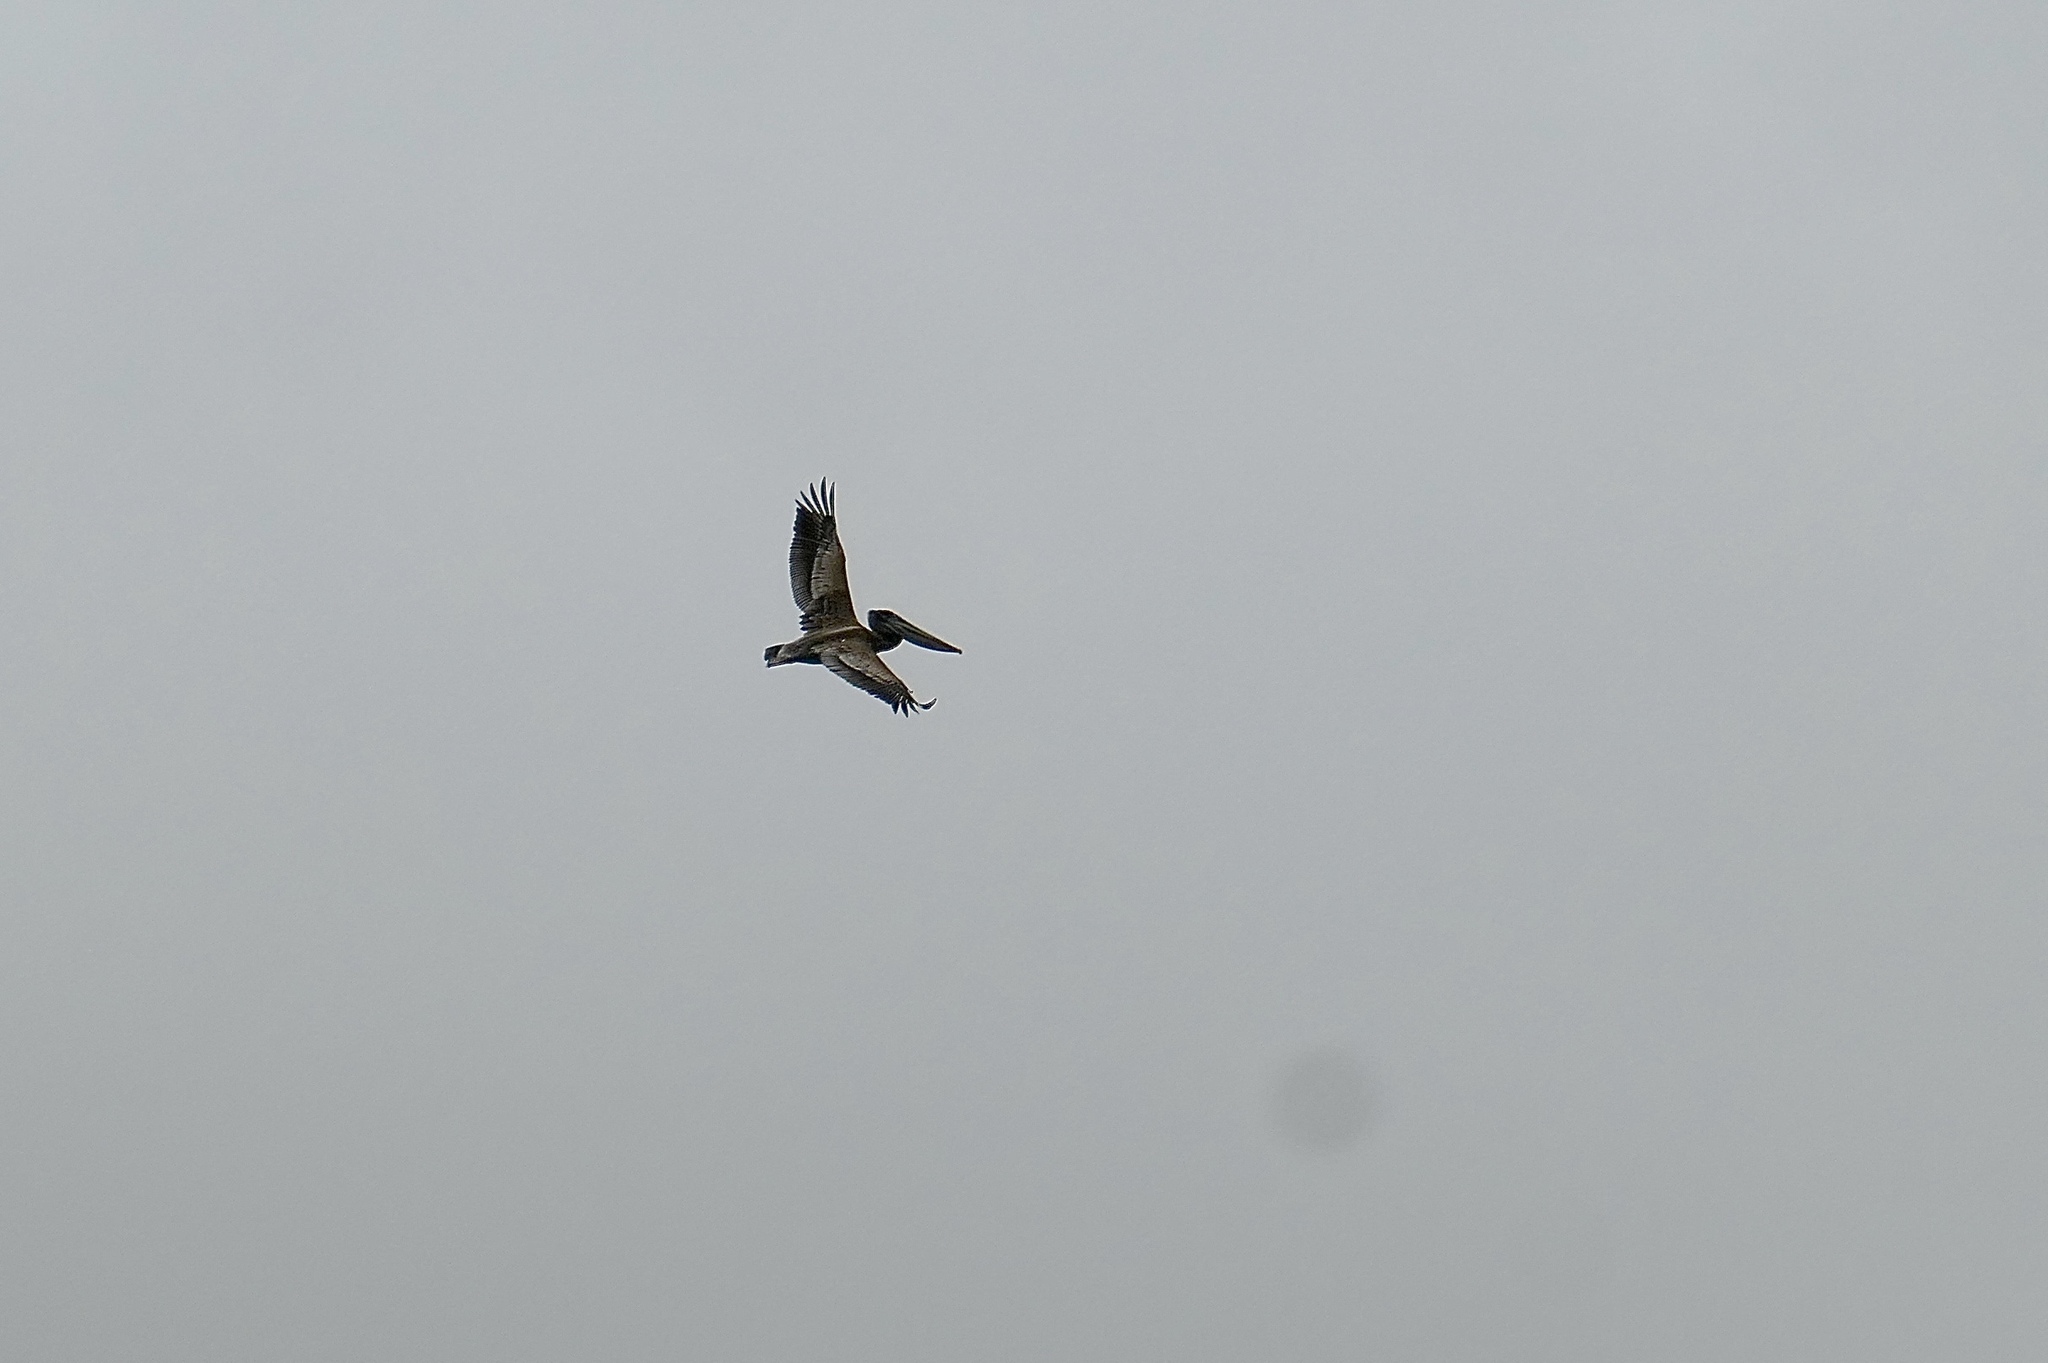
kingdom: Animalia
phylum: Chordata
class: Aves
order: Pelecaniformes
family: Pelecanidae
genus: Pelecanus
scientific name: Pelecanus occidentalis
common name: Brown pelican
